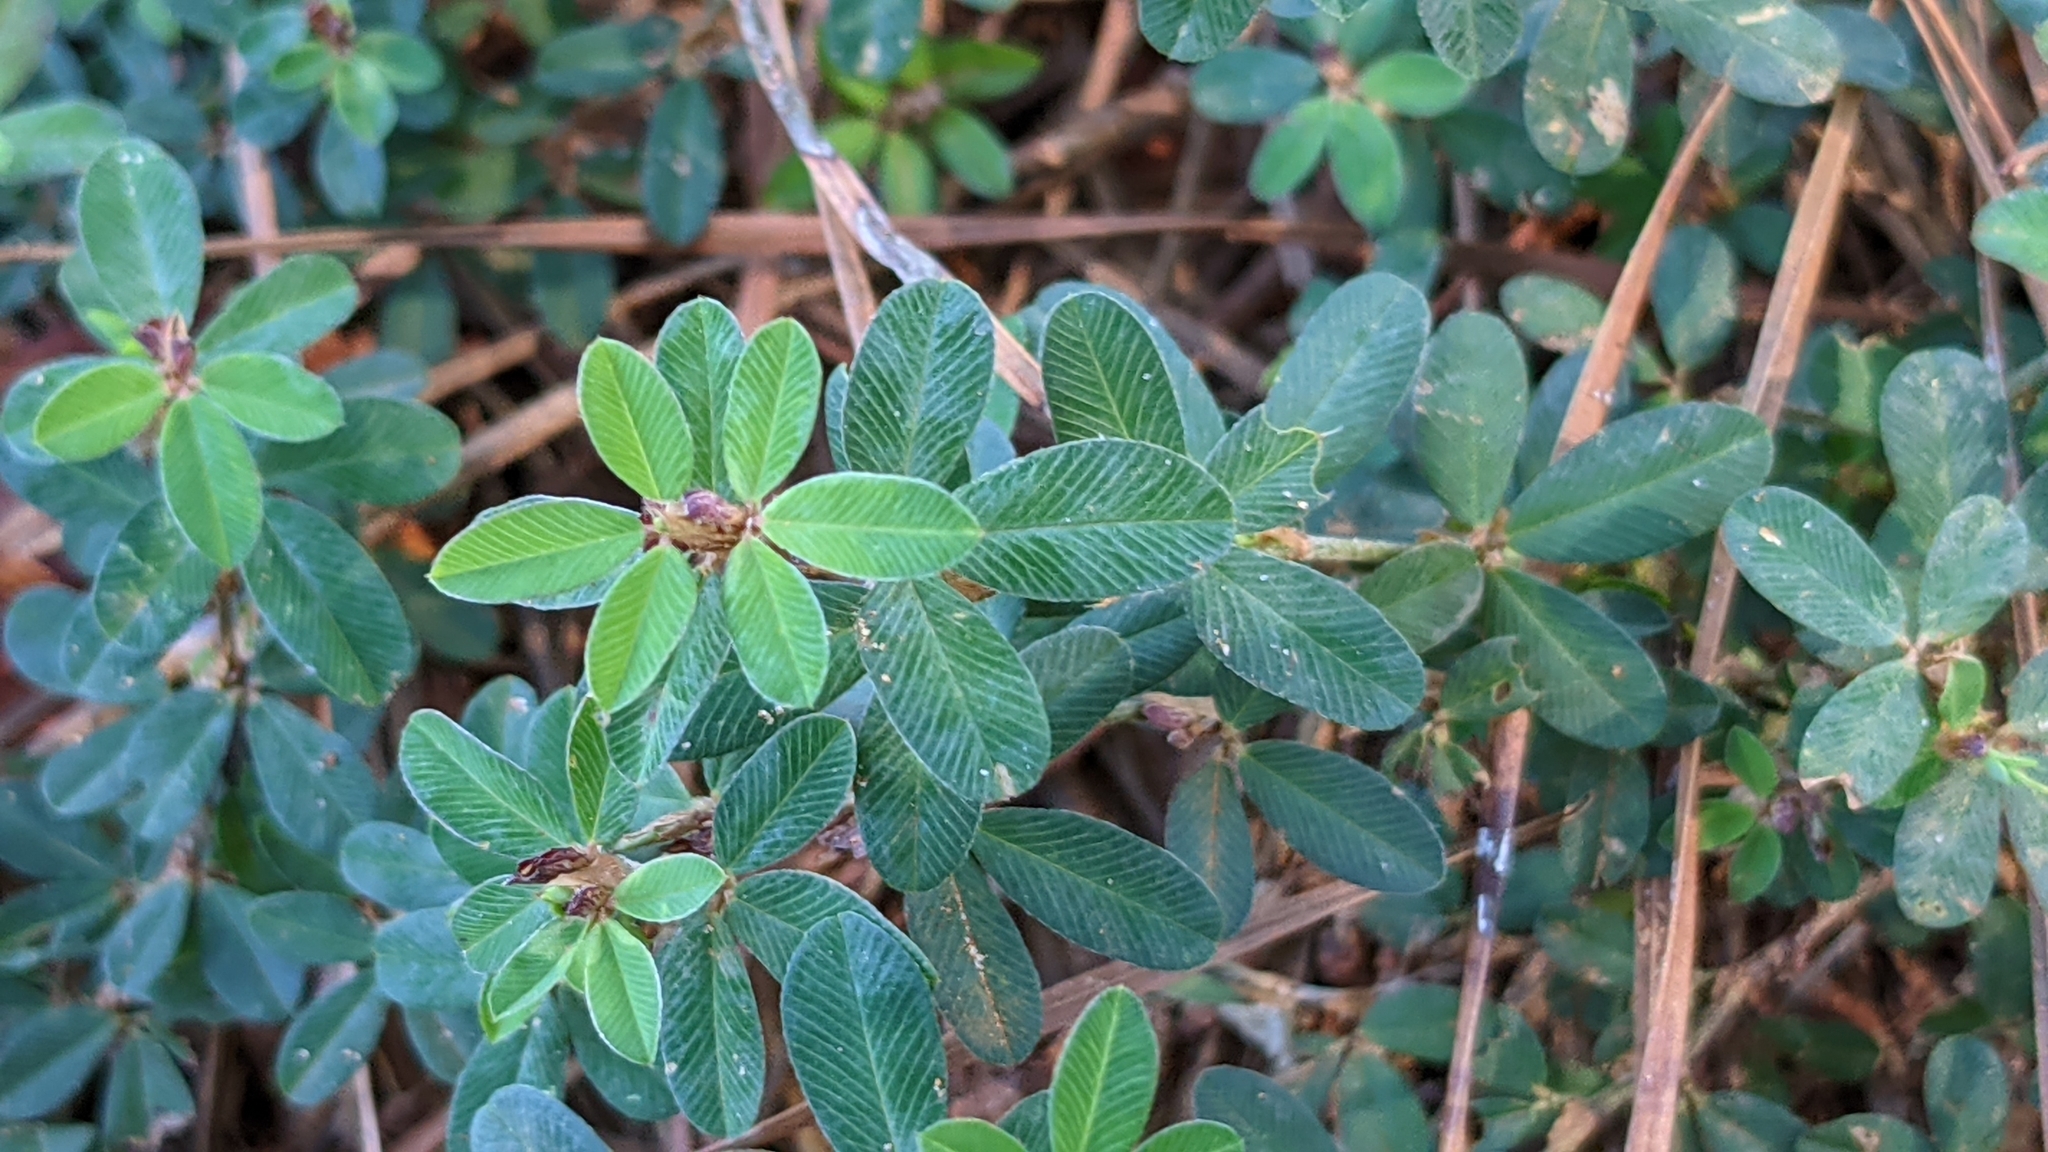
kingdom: Plantae
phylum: Tracheophyta
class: Magnoliopsida
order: Fabales
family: Fabaceae
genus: Kummerowia
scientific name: Kummerowia striata
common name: Japanese clover
